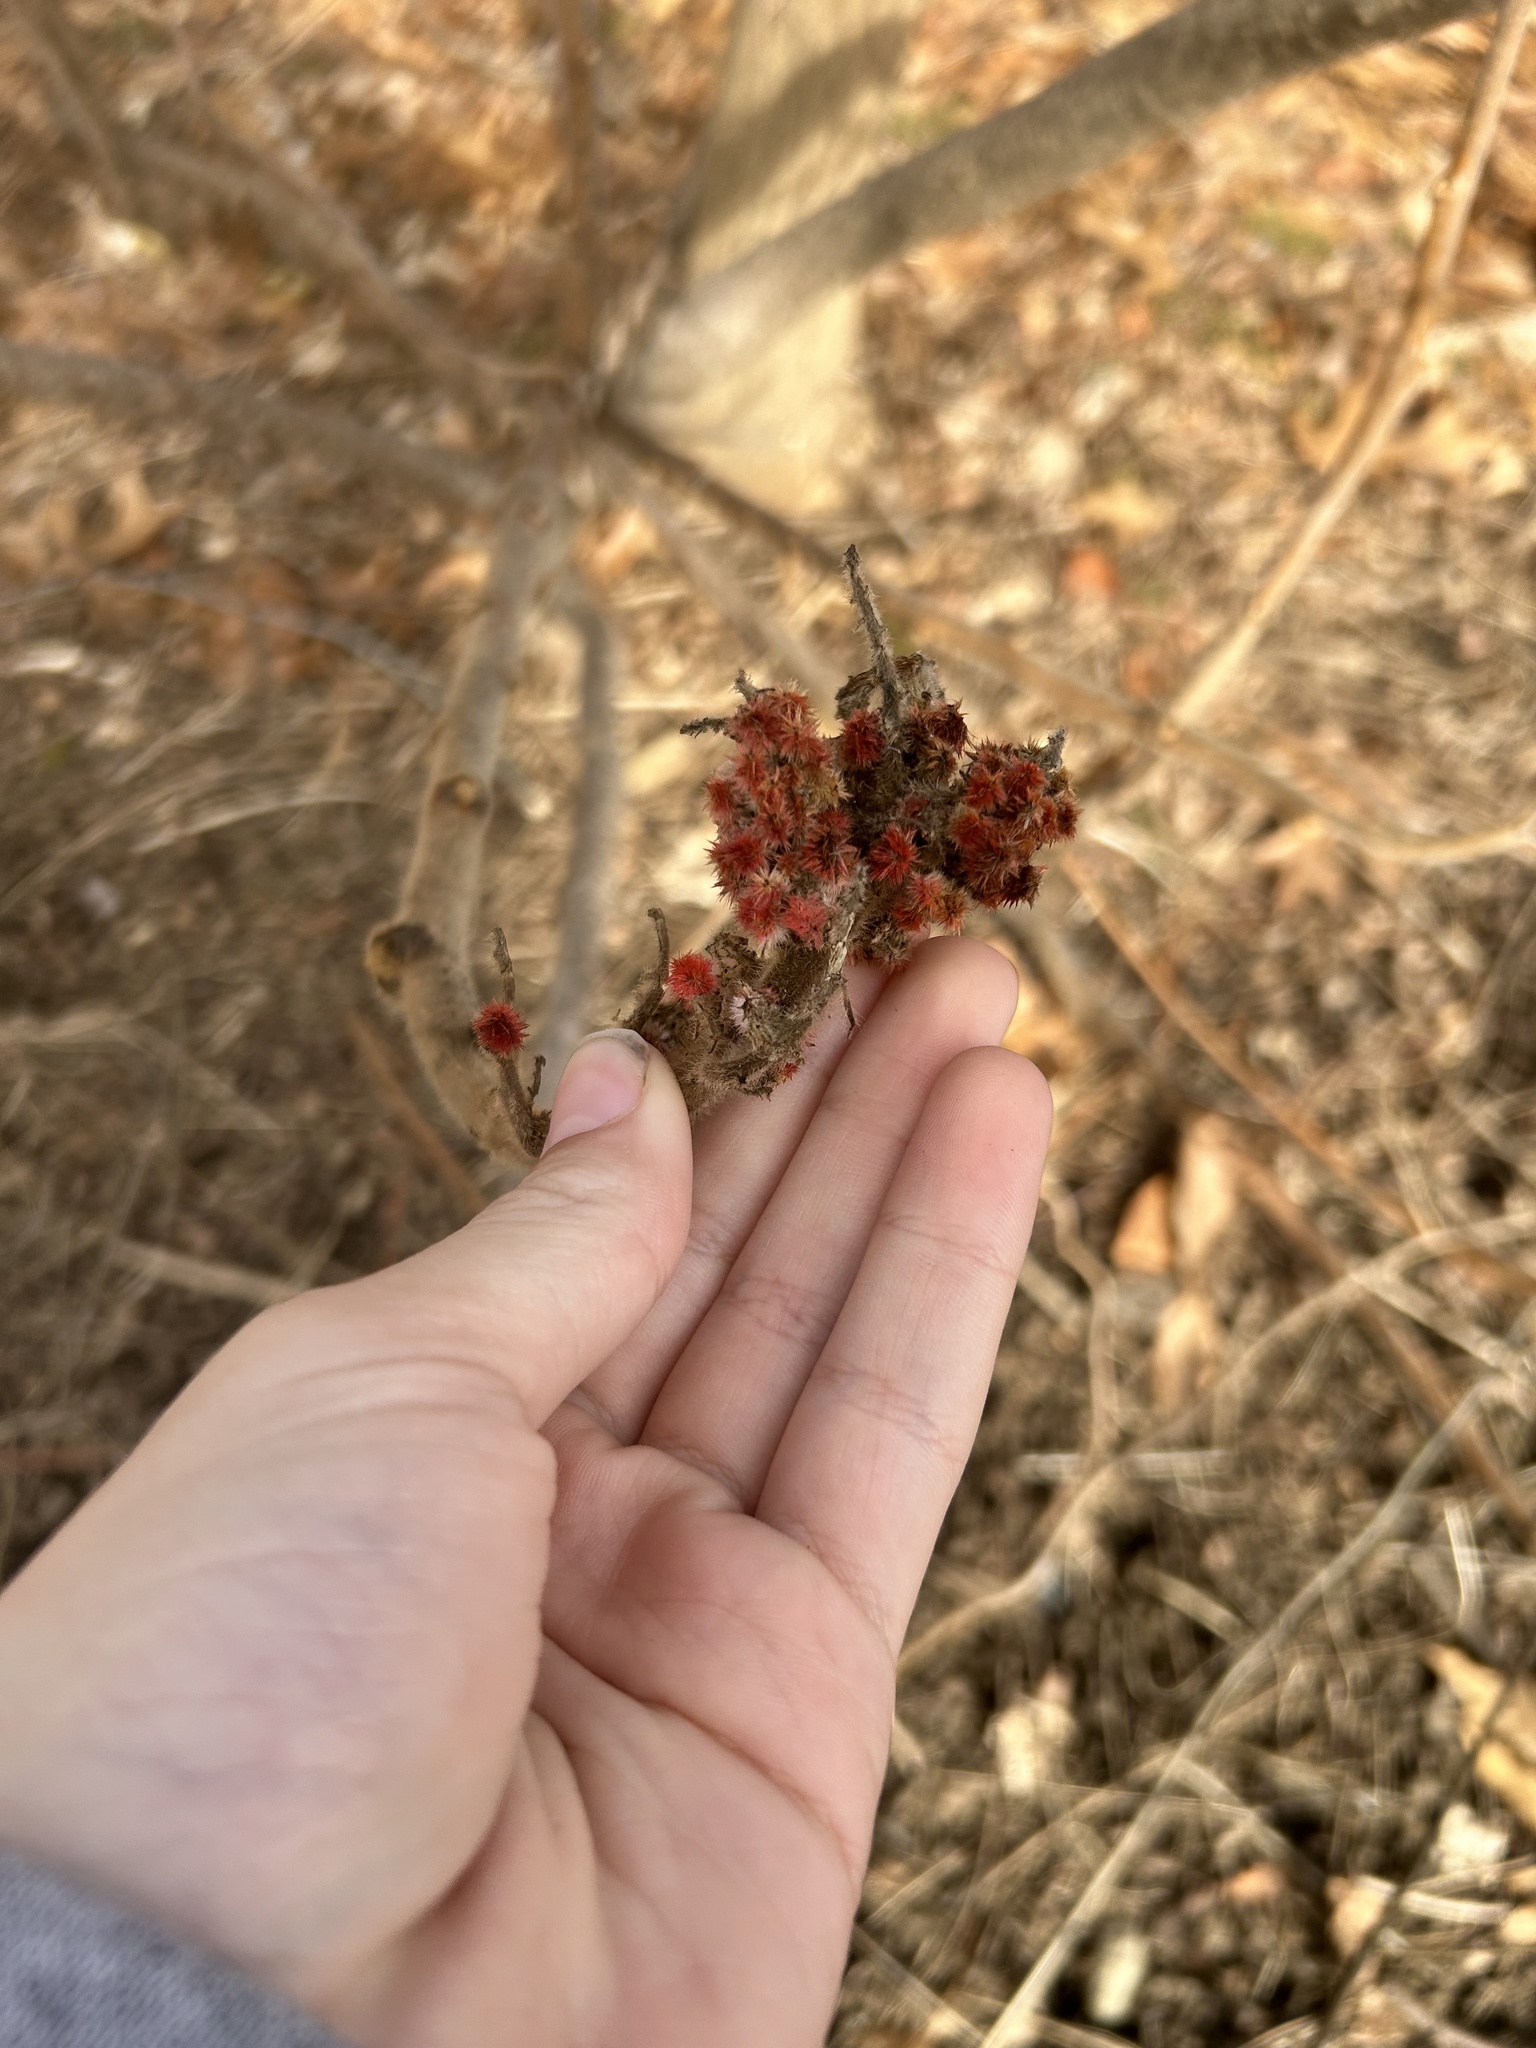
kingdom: Plantae
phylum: Tracheophyta
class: Magnoliopsida
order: Sapindales
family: Anacardiaceae
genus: Rhus
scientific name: Rhus typhina
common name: Staghorn sumac
